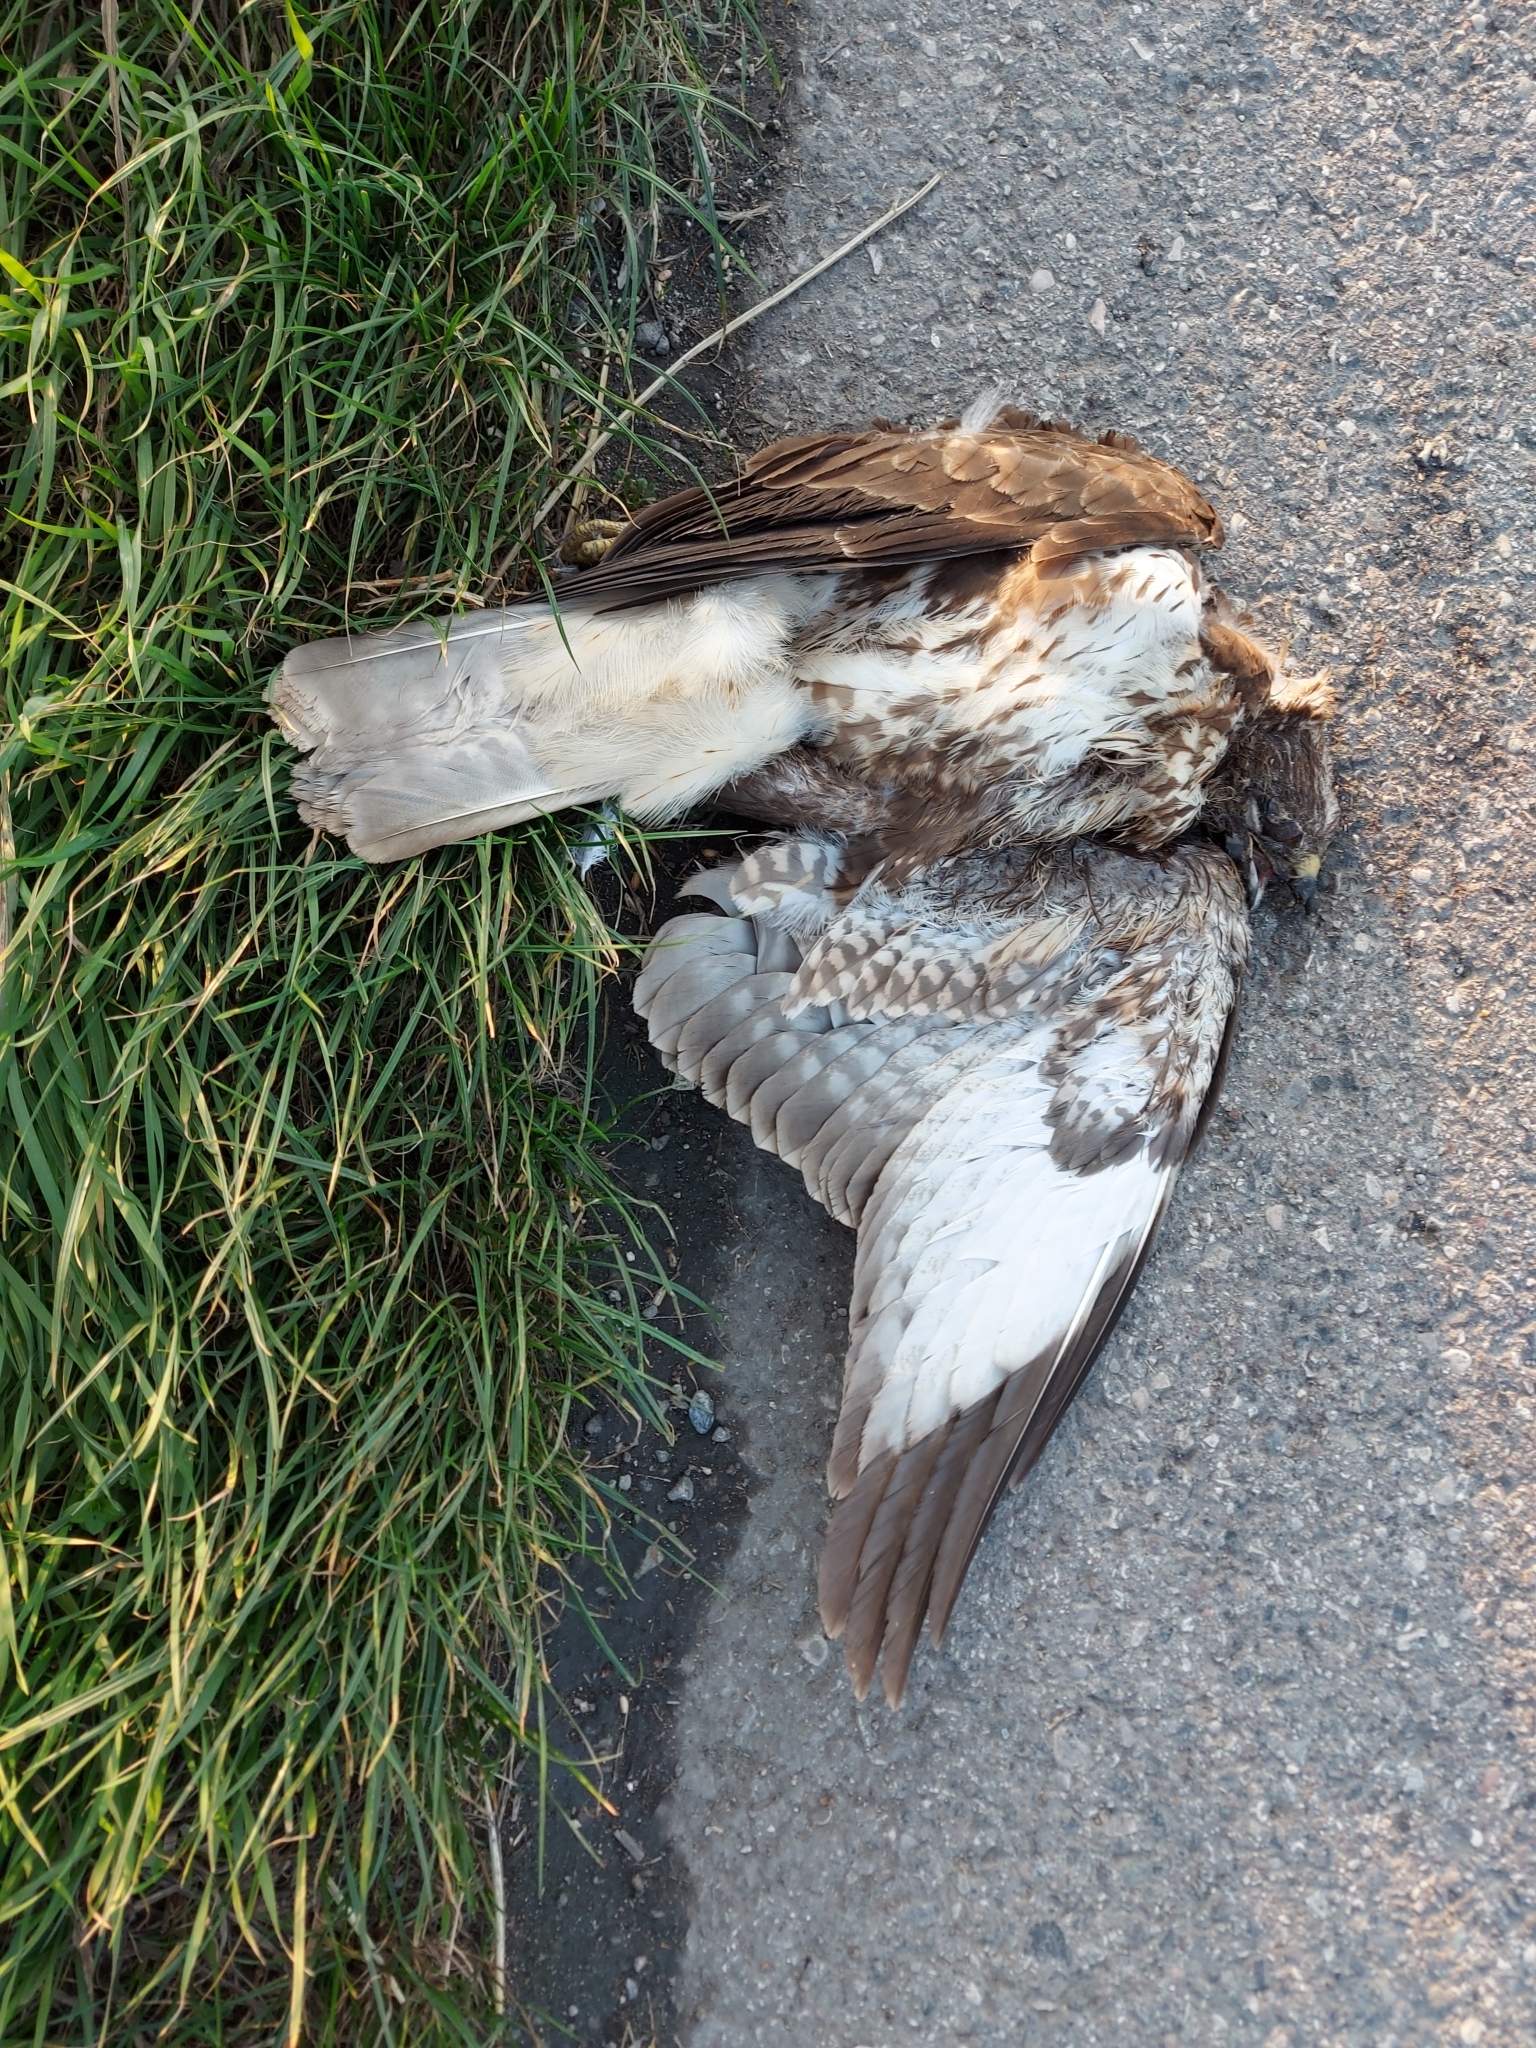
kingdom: Animalia
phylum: Chordata
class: Aves
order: Accipitriformes
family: Accipitridae
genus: Buteo
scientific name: Buteo buteo
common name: Common buzzard
